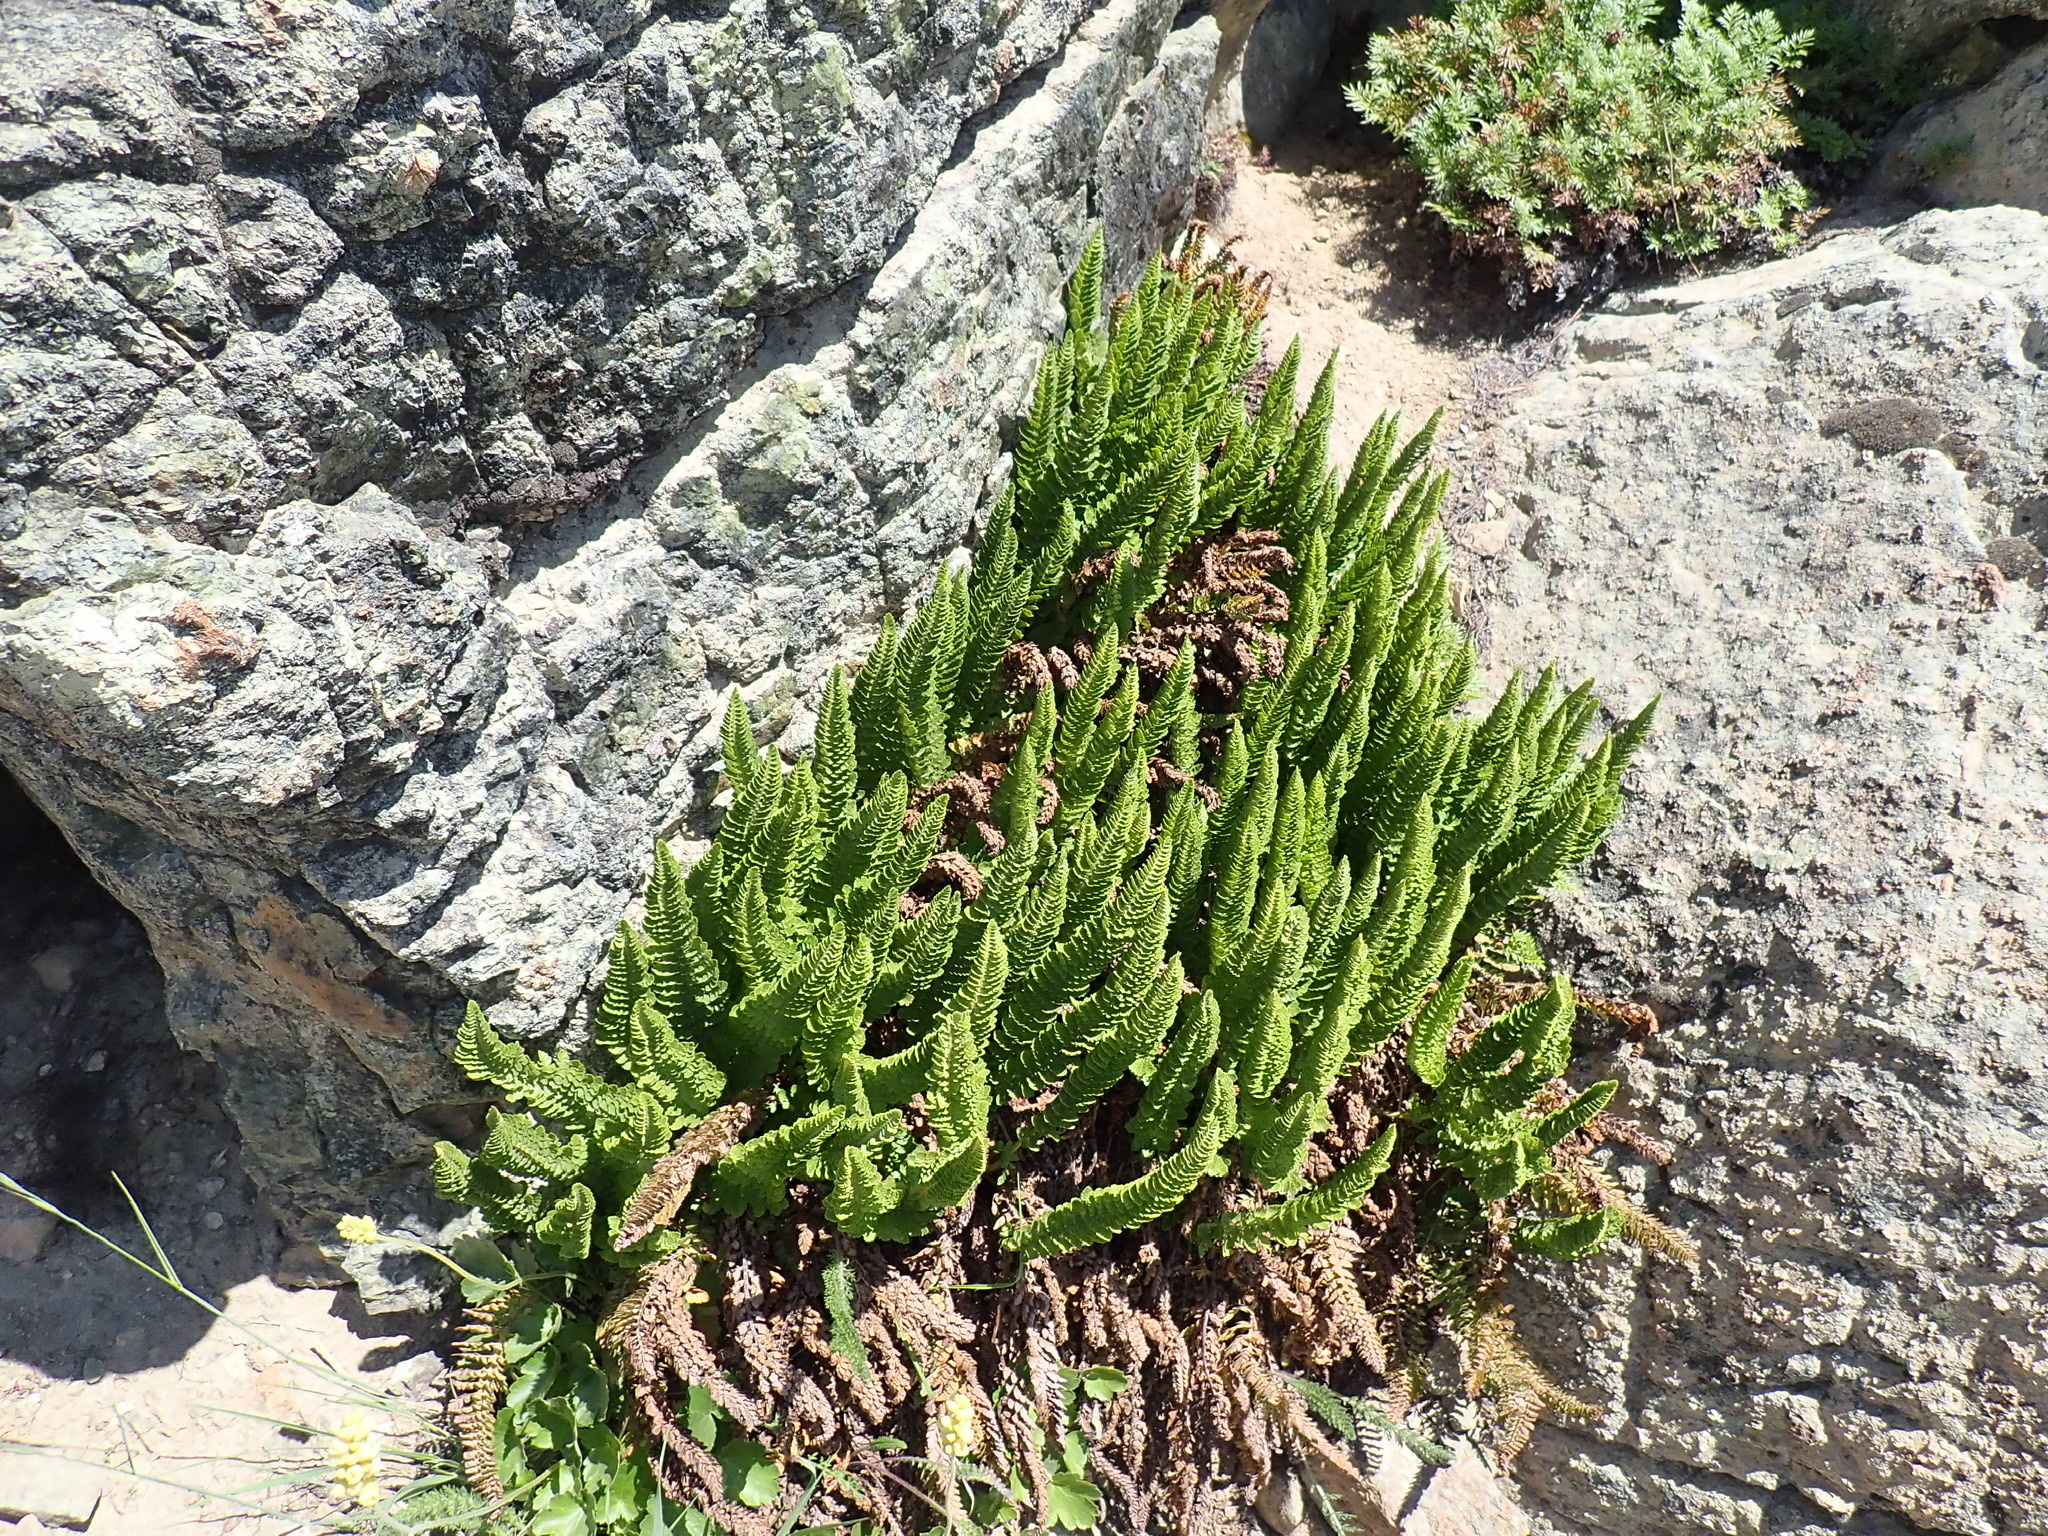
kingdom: Plantae
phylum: Tracheophyta
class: Polypodiopsida
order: Polypodiales
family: Dryopteridaceae
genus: Polystichum
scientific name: Polystichum lemmonii
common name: Lemmon's holly fern
